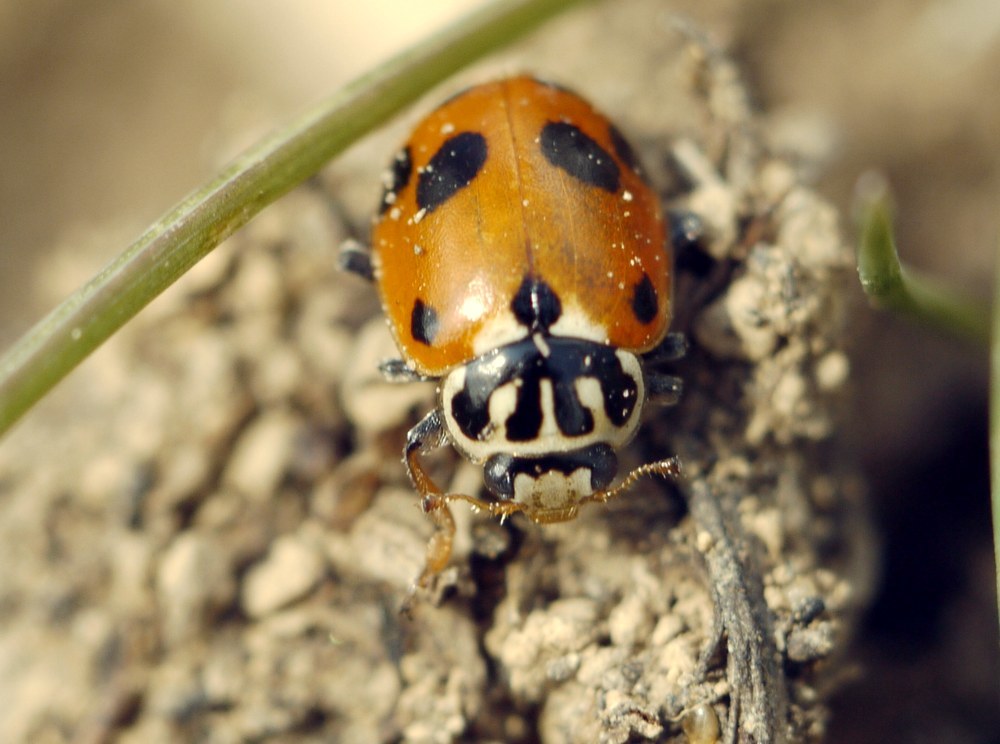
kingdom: Animalia
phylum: Arthropoda
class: Insecta
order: Coleoptera
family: Coccinellidae
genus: Hippodamia
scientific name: Hippodamia variegata
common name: Ladybird beetle
